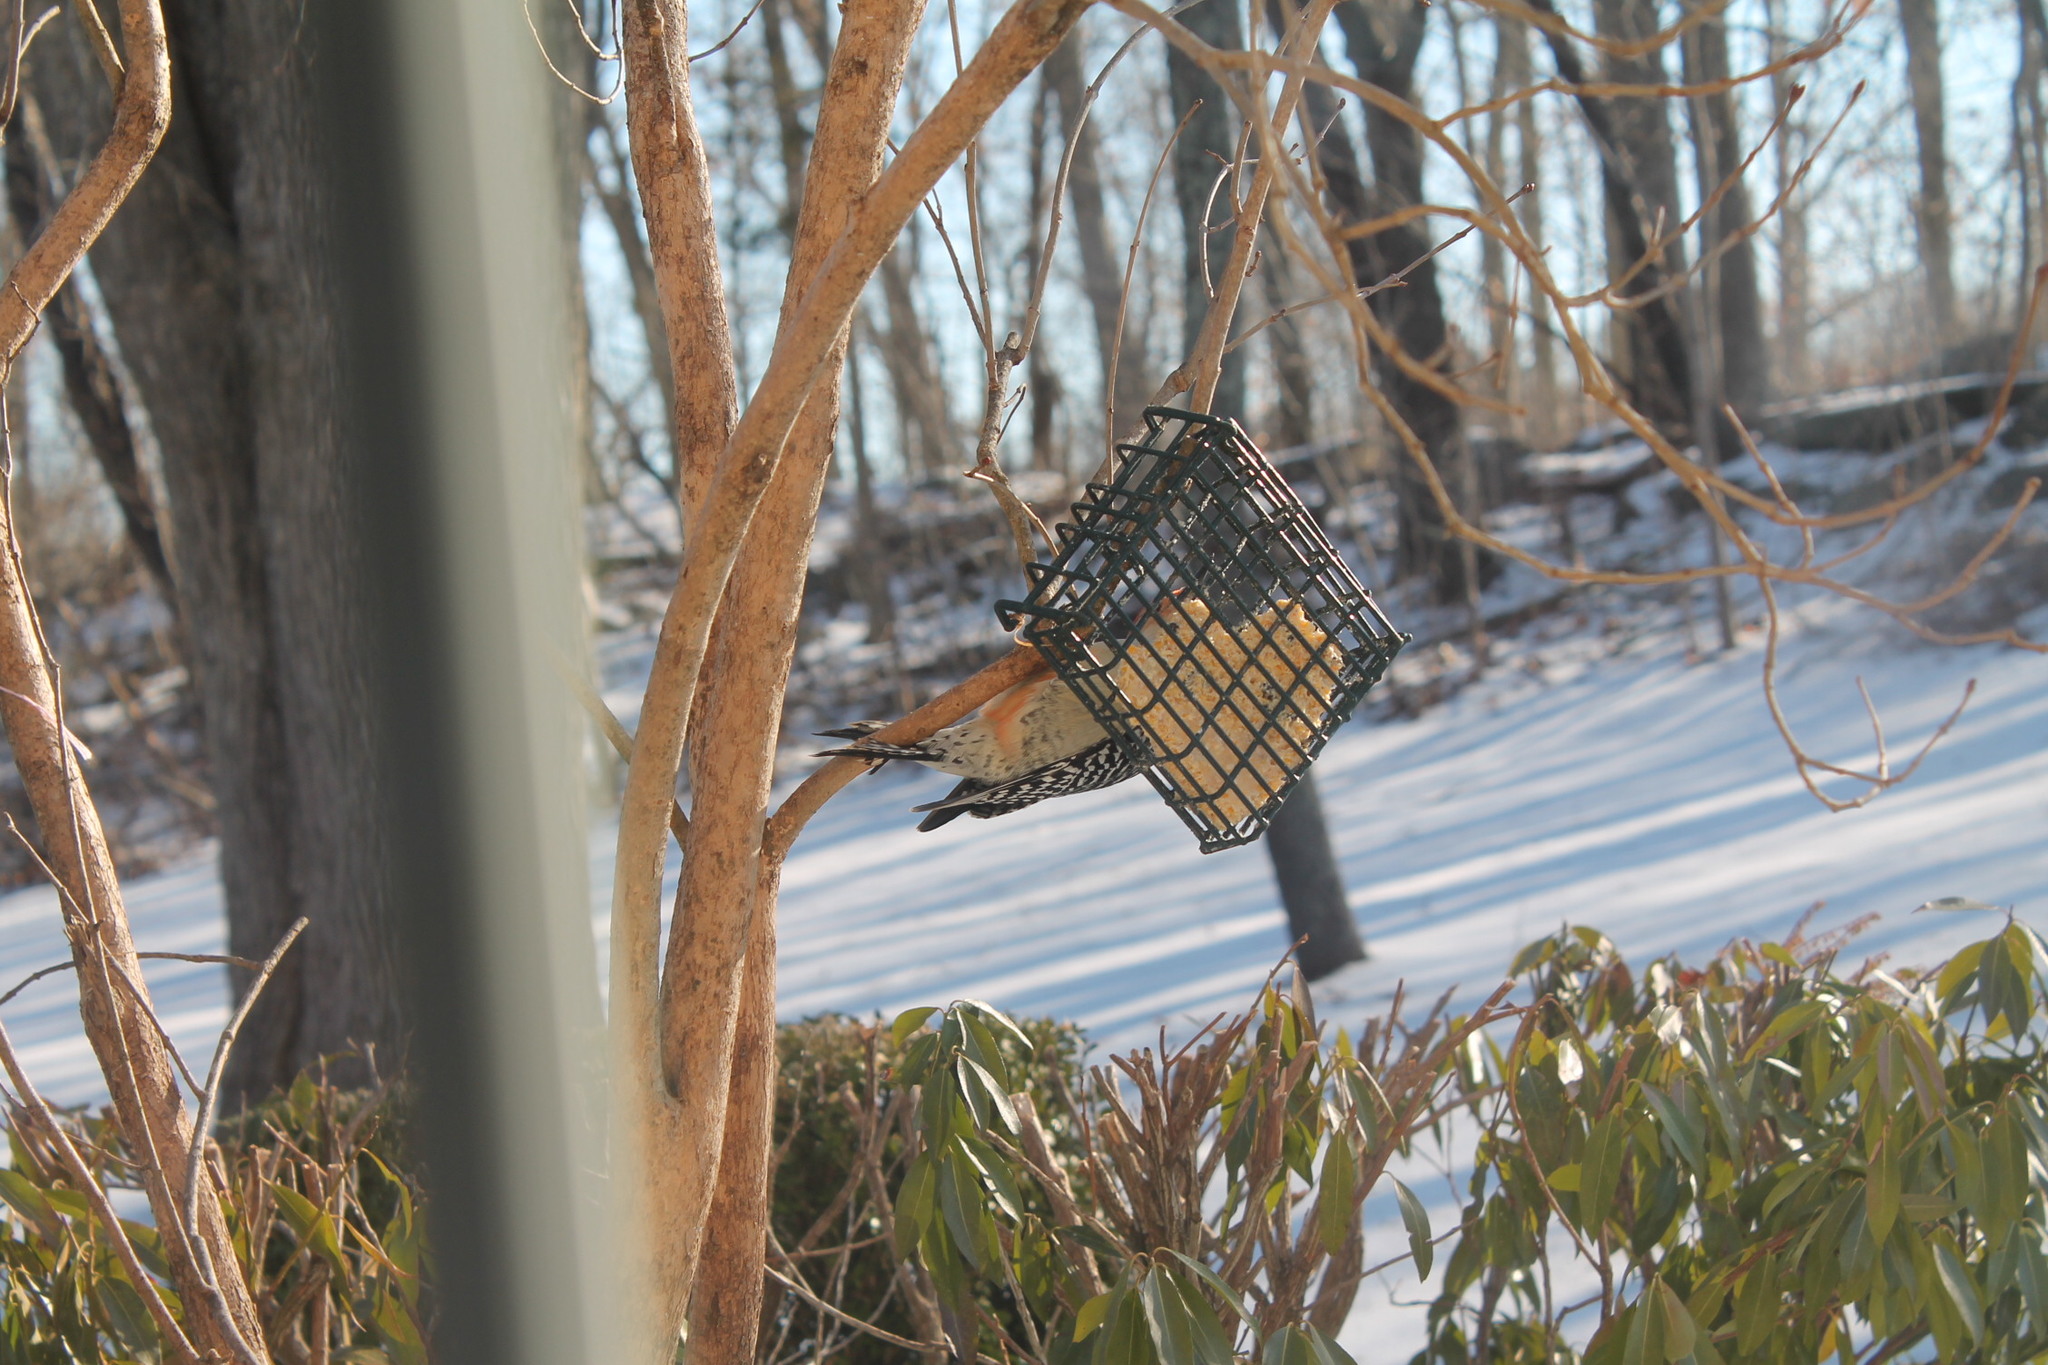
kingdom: Animalia
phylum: Chordata
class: Aves
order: Piciformes
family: Picidae
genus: Melanerpes
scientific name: Melanerpes carolinus
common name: Red-bellied woodpecker
